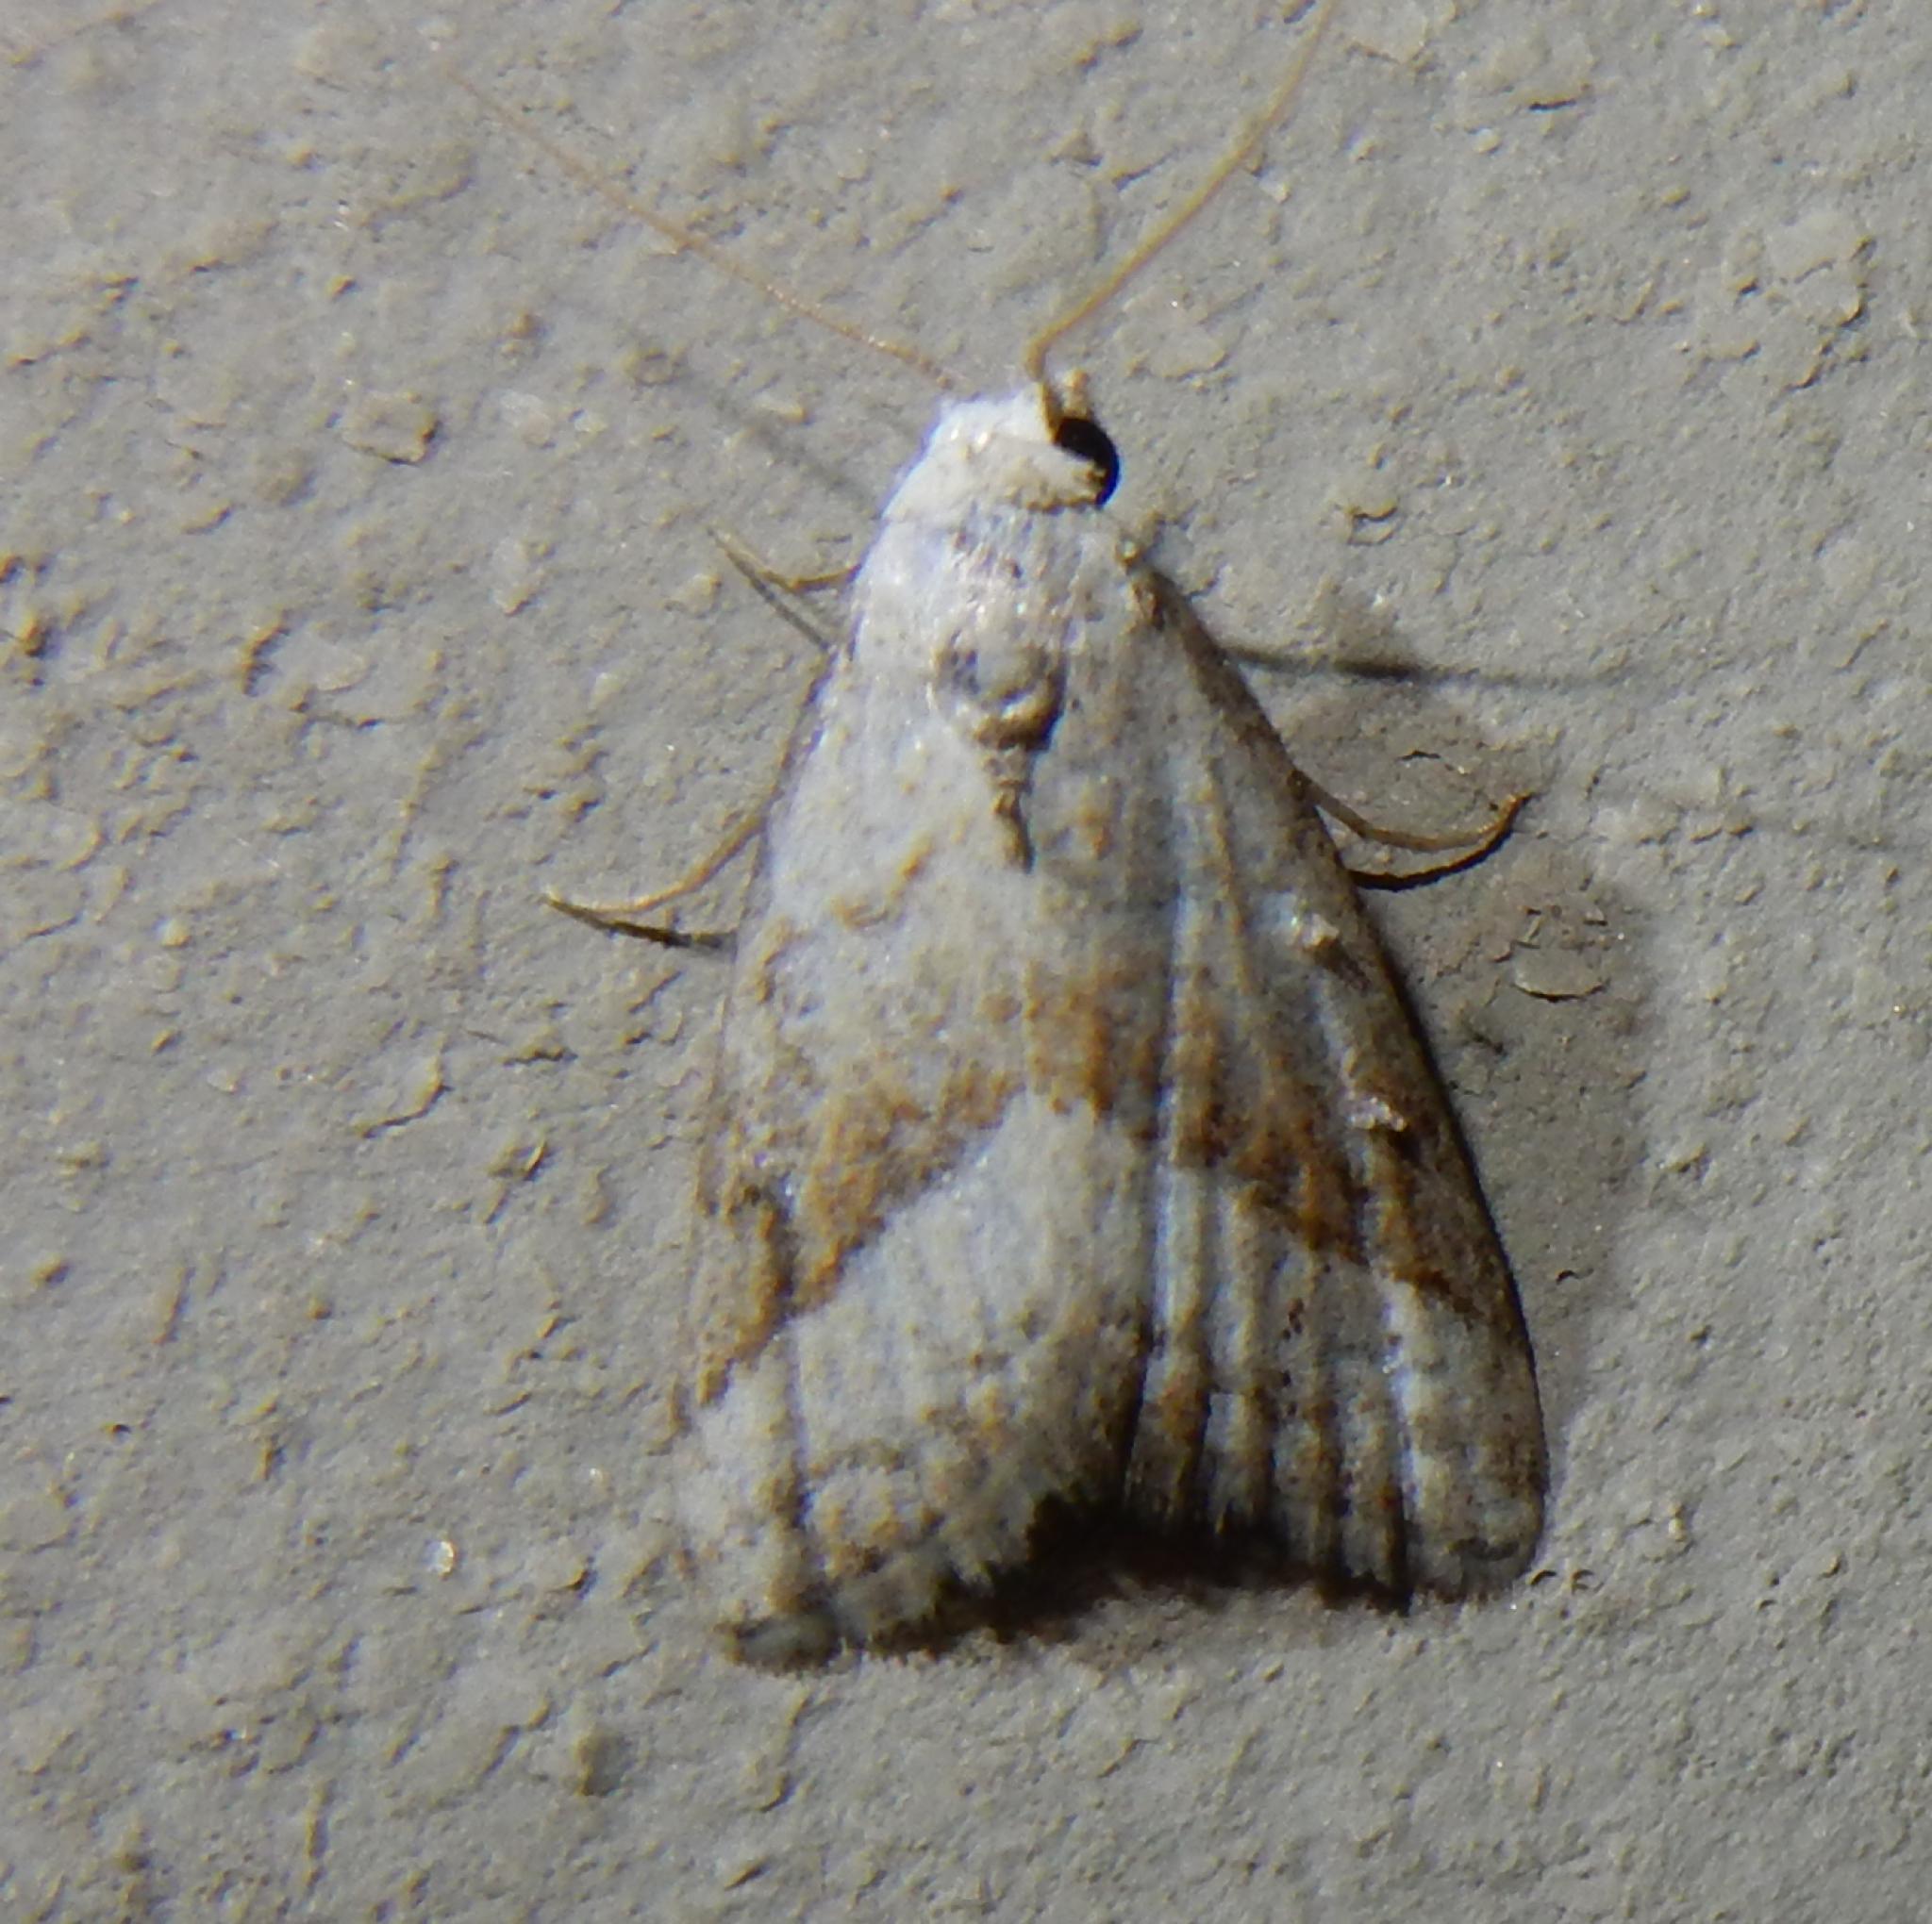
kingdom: Animalia
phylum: Arthropoda
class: Insecta
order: Lepidoptera
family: Nolidae
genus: Nola
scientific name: Nola tineoides
